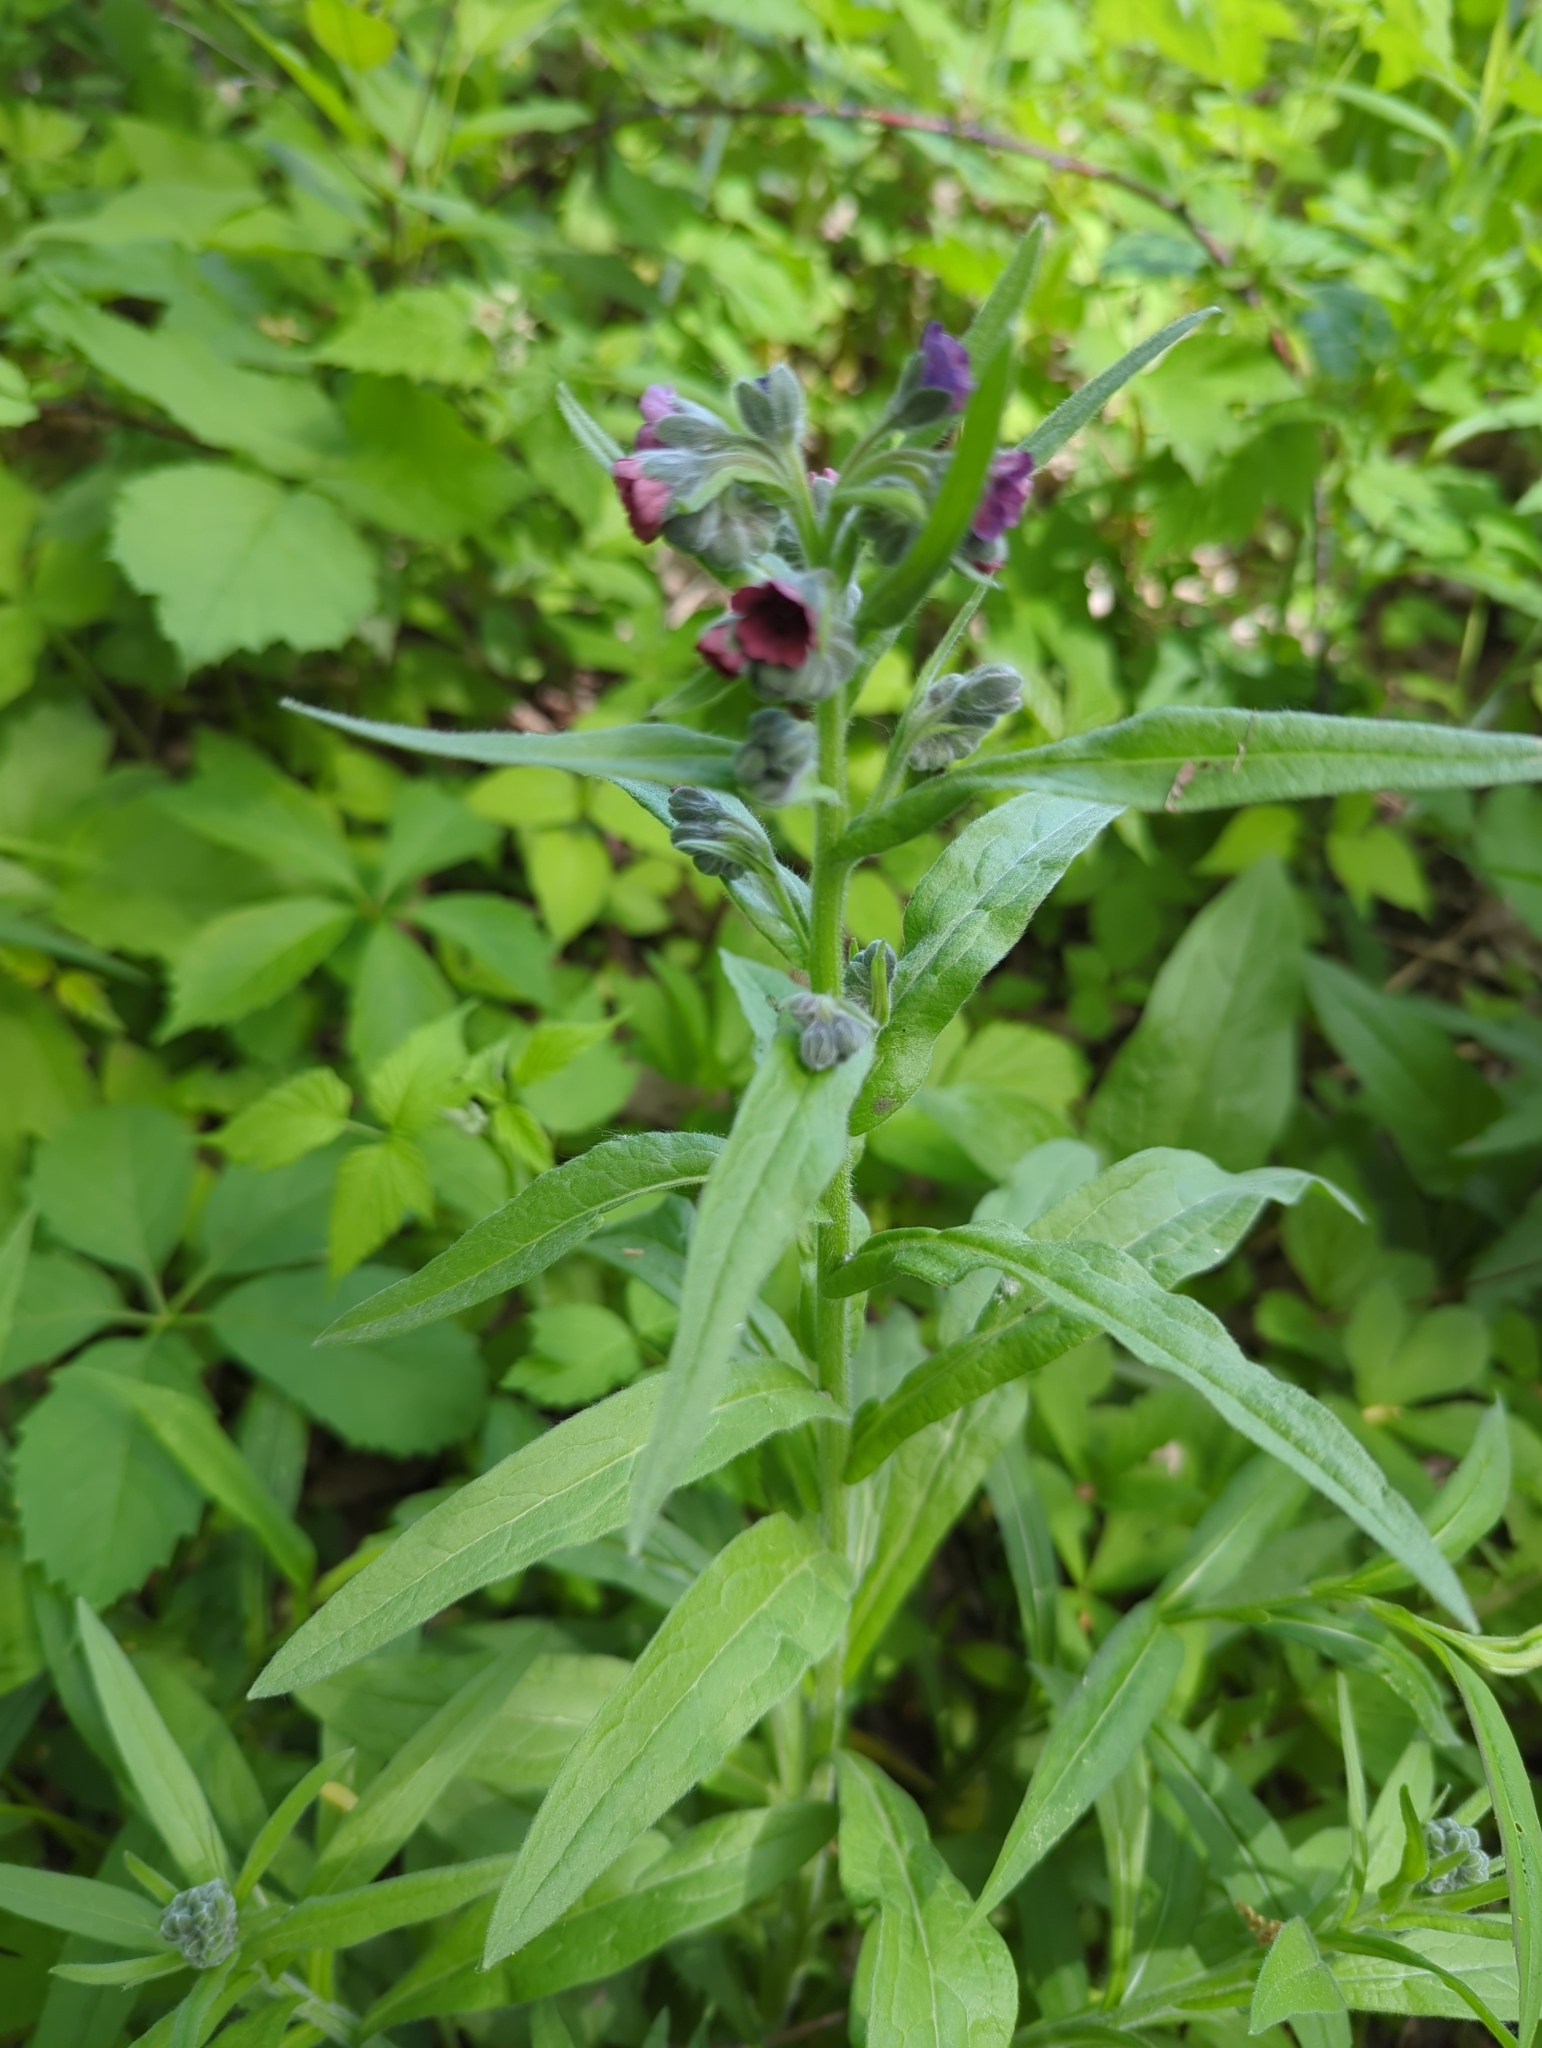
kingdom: Plantae
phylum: Tracheophyta
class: Magnoliopsida
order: Boraginales
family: Boraginaceae
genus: Cynoglossum
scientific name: Cynoglossum officinale
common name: Hound's-tongue
